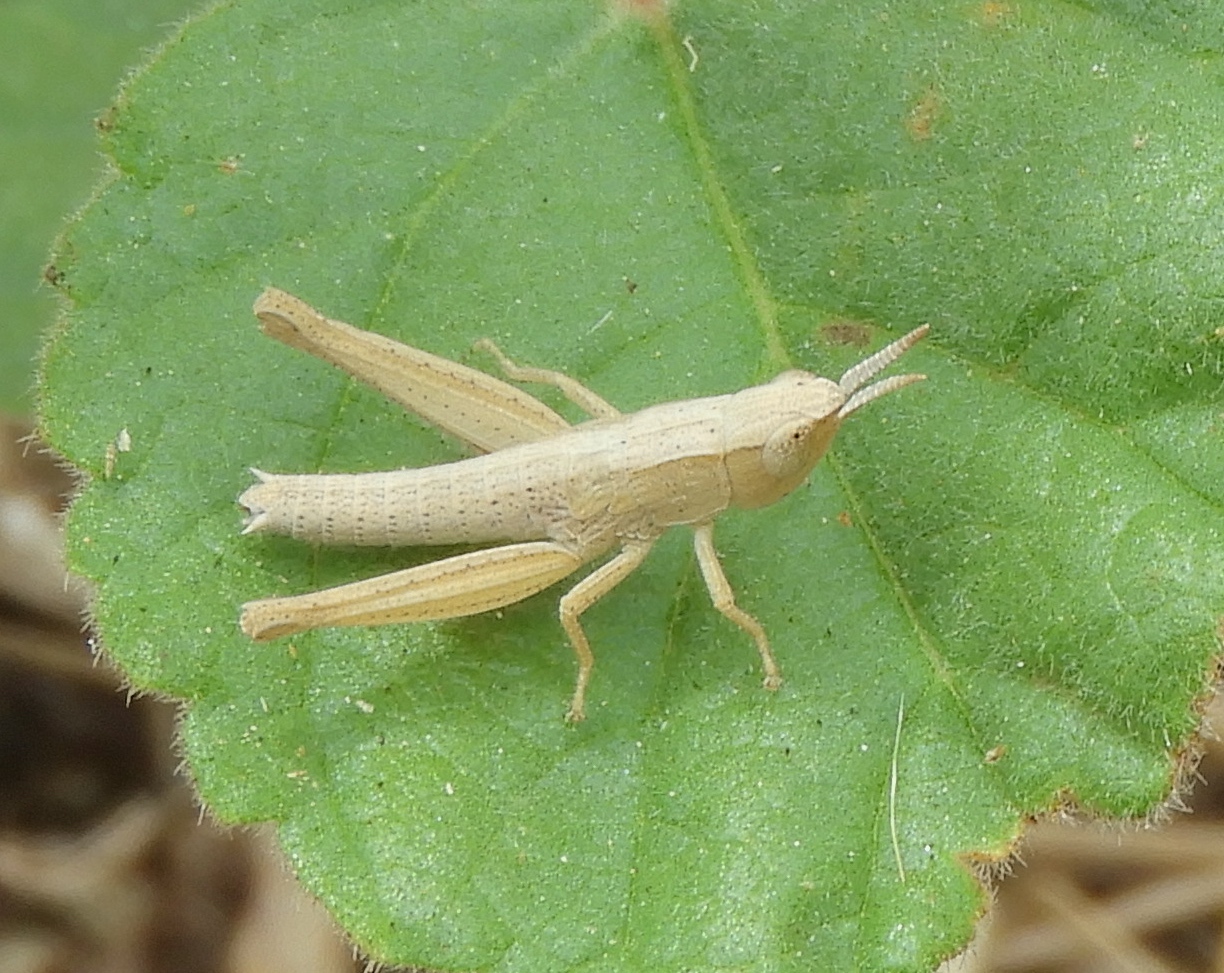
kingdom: Animalia
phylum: Arthropoda
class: Insecta
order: Orthoptera
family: Acrididae
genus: Dichromorpha
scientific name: Dichromorpha prominula
